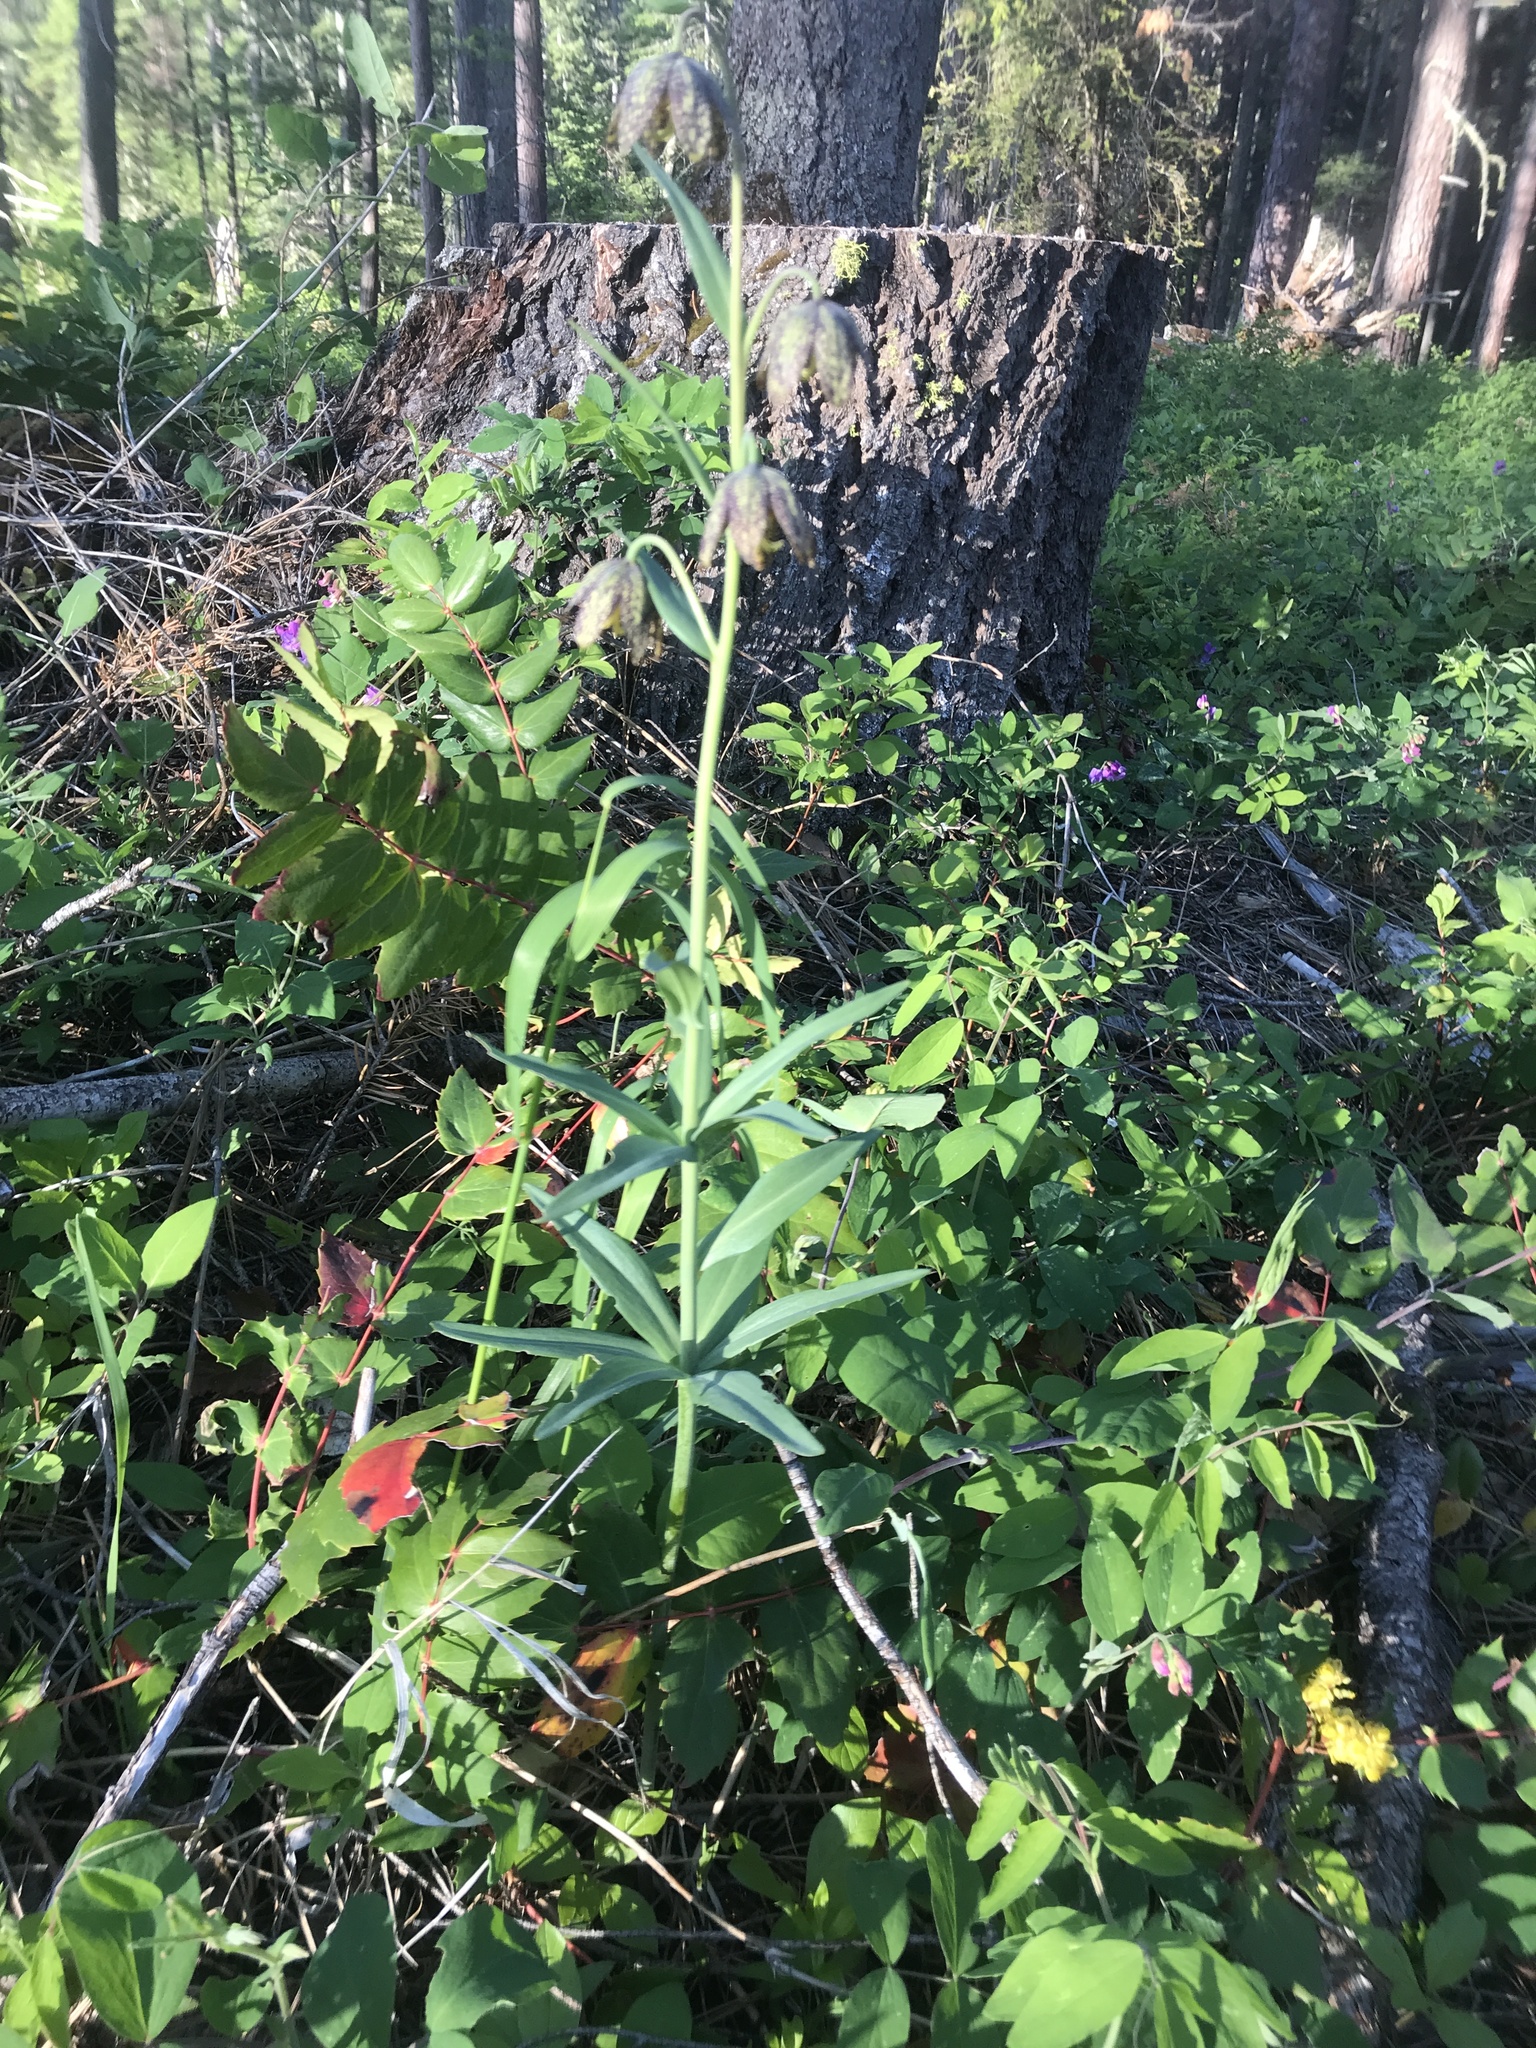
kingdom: Plantae
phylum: Tracheophyta
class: Liliopsida
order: Liliales
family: Liliaceae
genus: Fritillaria
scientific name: Fritillaria affinis
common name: Ojai fritillary
